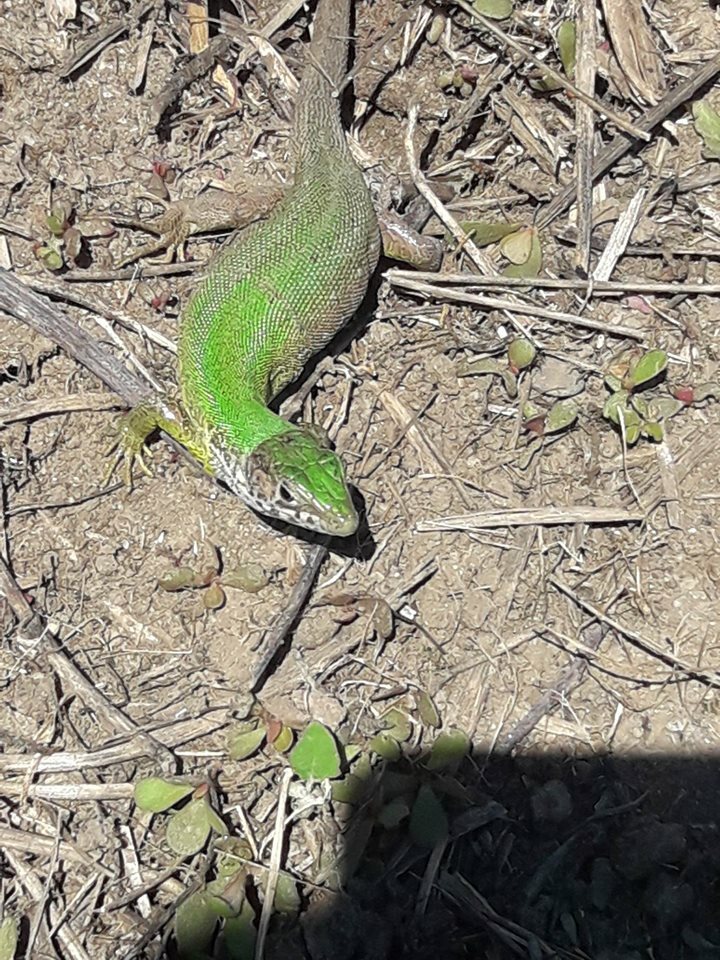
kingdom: Animalia
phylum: Chordata
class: Squamata
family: Lacertidae
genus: Lacerta
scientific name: Lacerta viridis
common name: European green lizard
